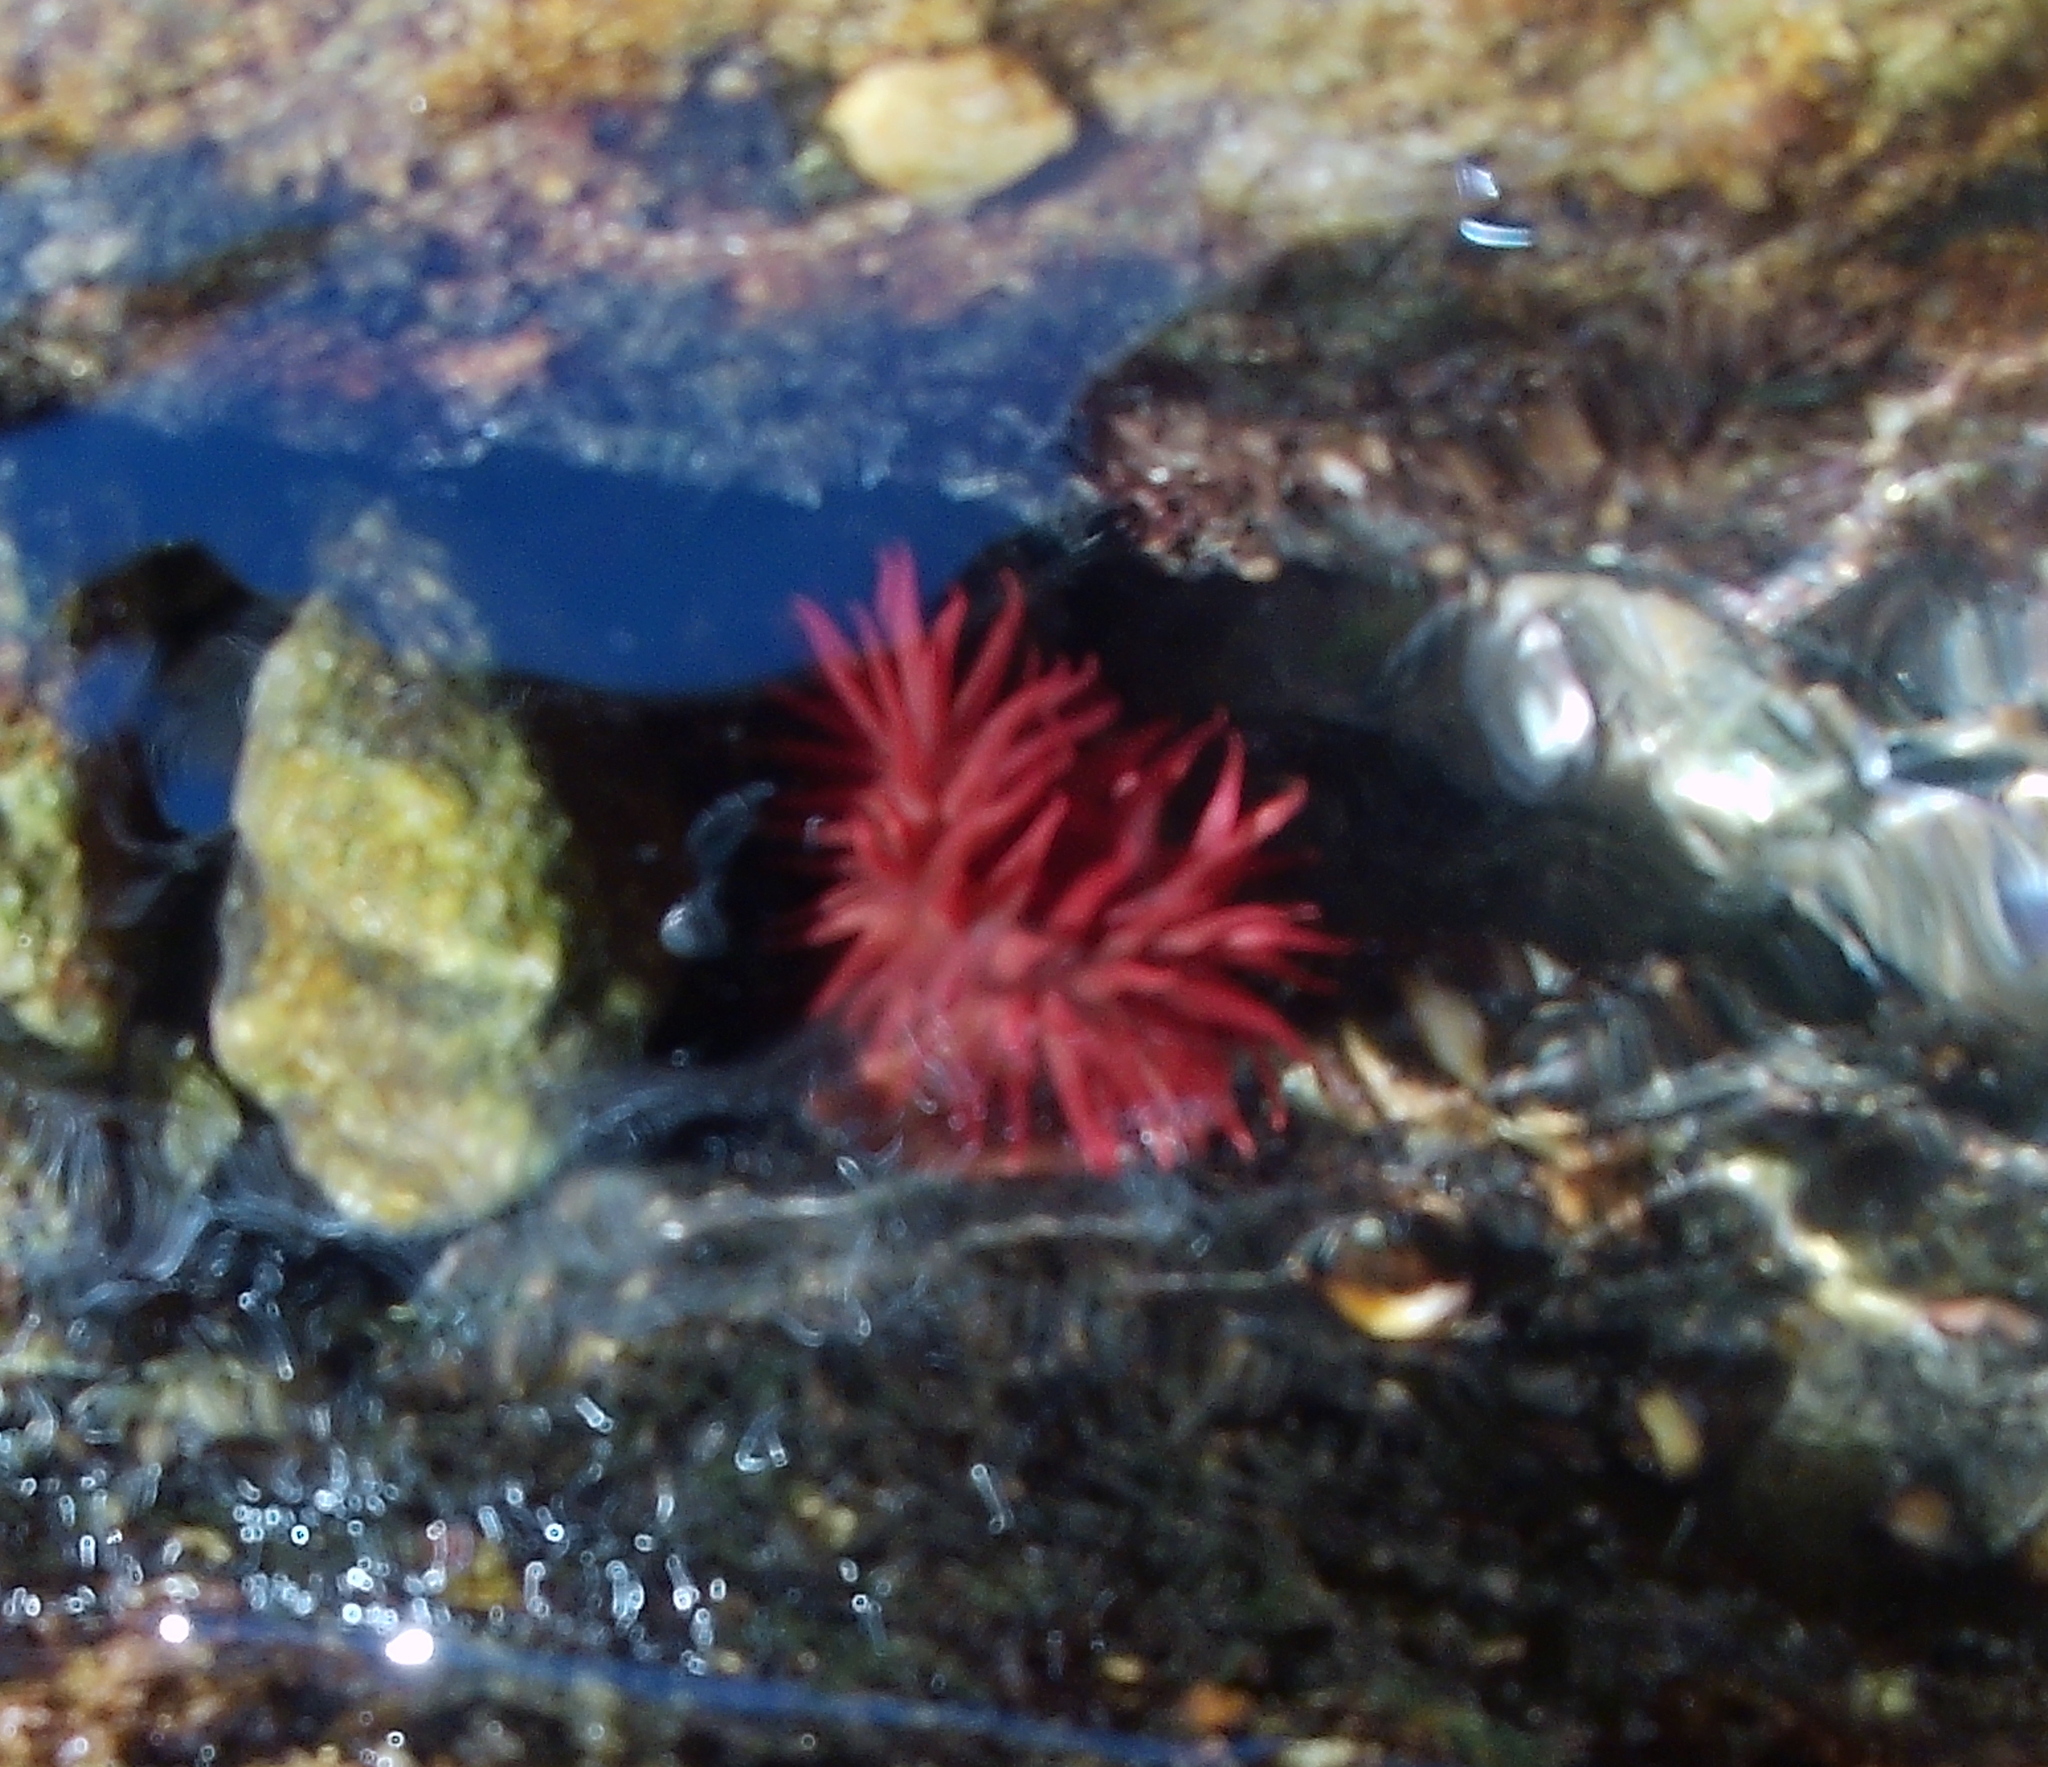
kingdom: Animalia
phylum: Cnidaria
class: Anthozoa
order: Actiniaria
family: Actiniidae
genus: Actinia
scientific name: Actinia tenebrosa
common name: Waratah anemone
